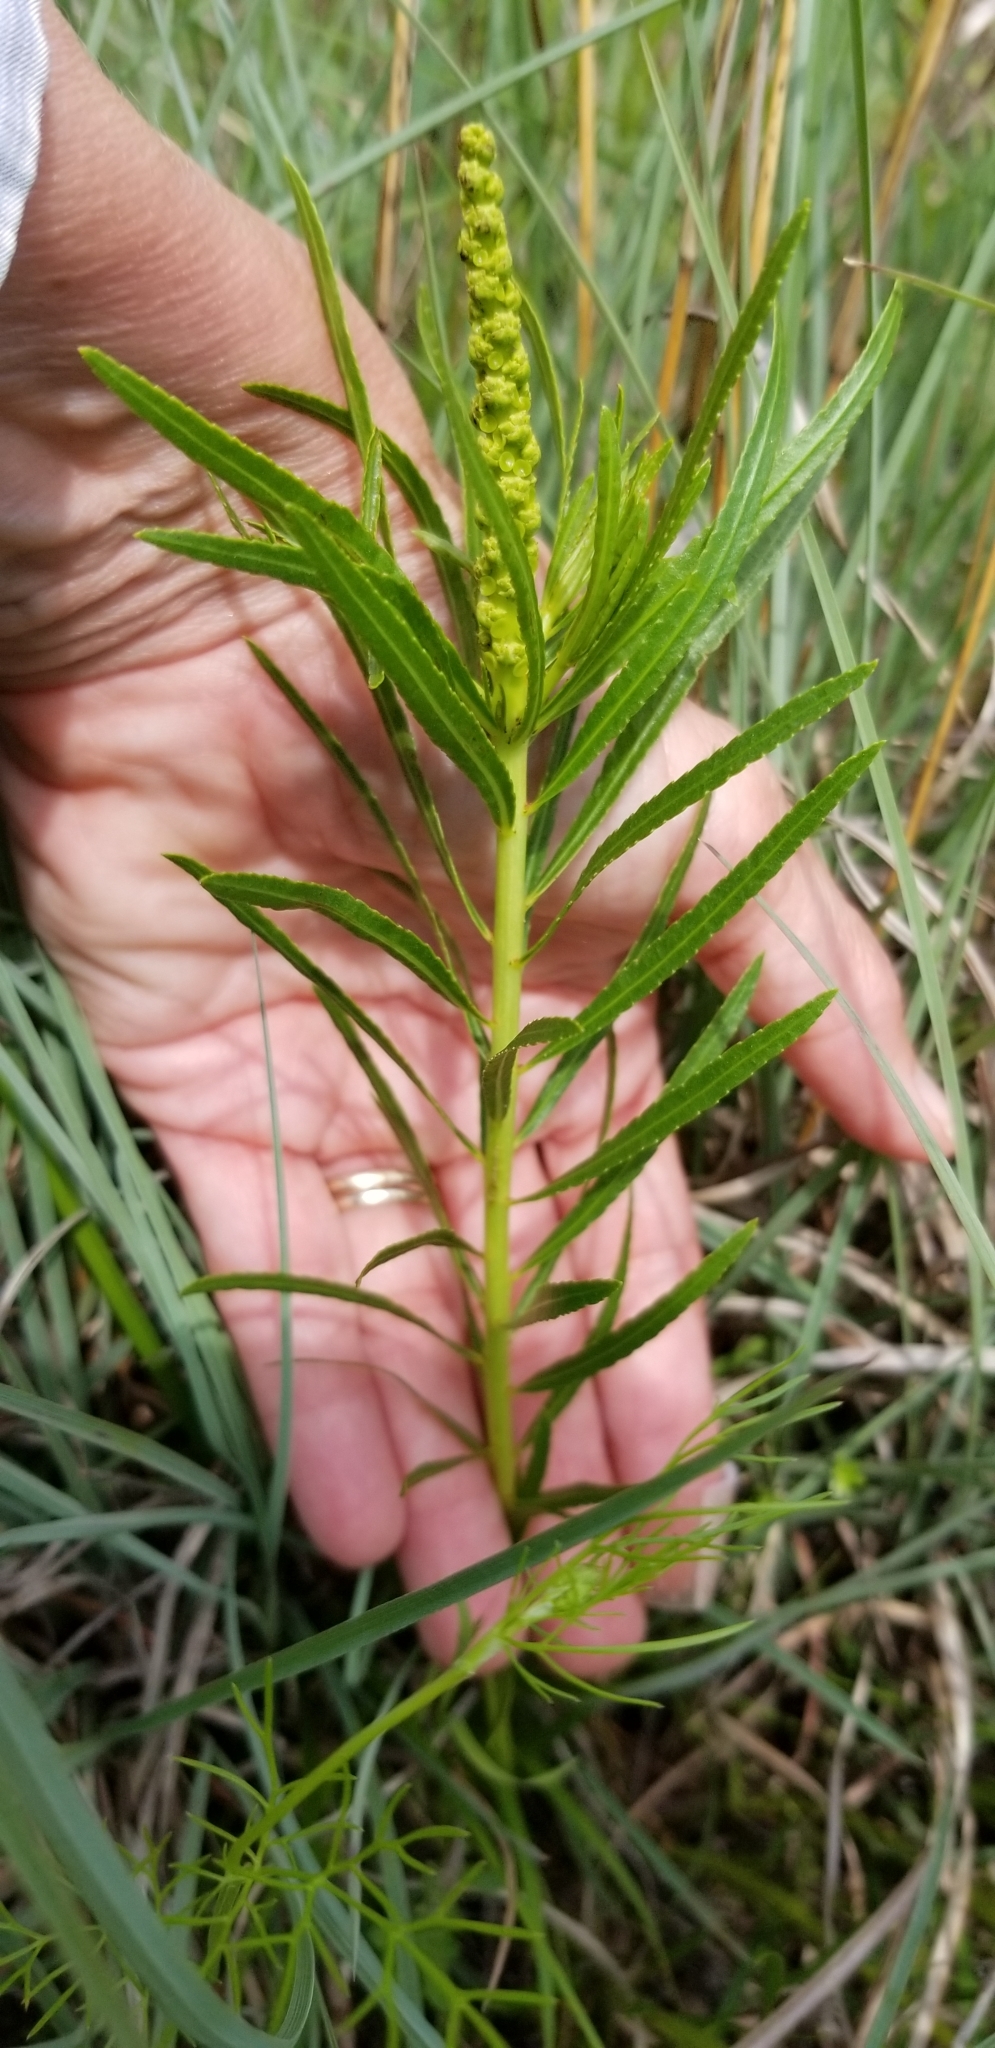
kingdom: Plantae
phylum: Tracheophyta
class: Magnoliopsida
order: Malpighiales
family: Euphorbiaceae
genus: Stillingia
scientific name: Stillingia texana
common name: Texas stillingia
